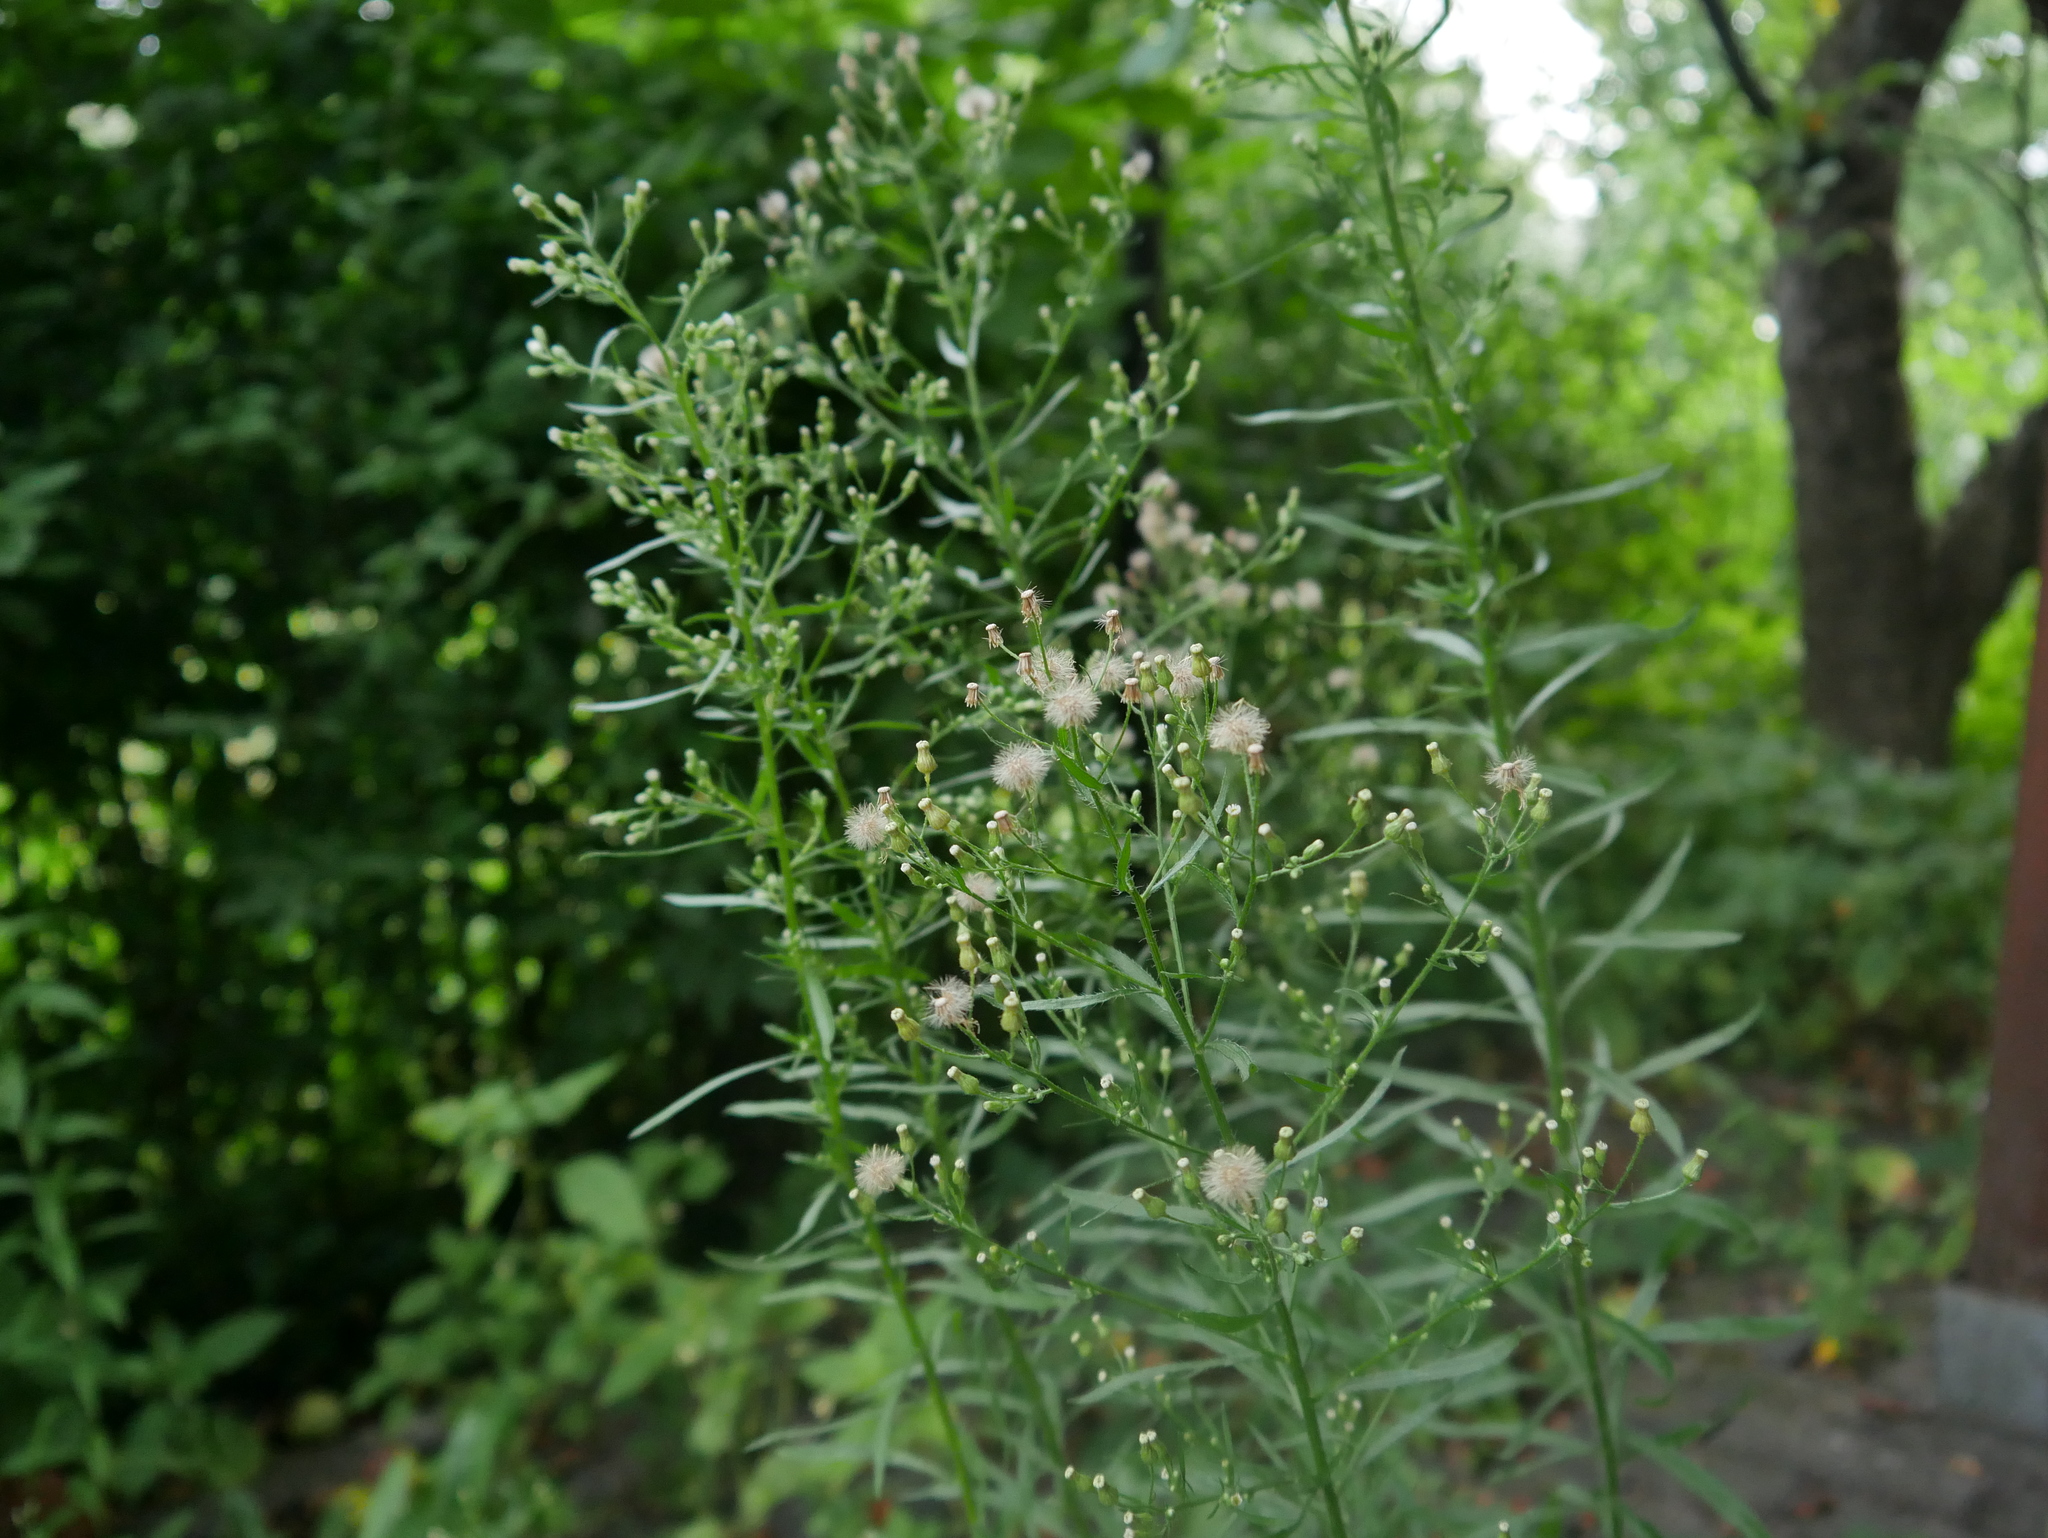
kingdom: Plantae
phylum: Tracheophyta
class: Magnoliopsida
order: Asterales
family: Asteraceae
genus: Erigeron
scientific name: Erigeron canadensis
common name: Canadian fleabane
